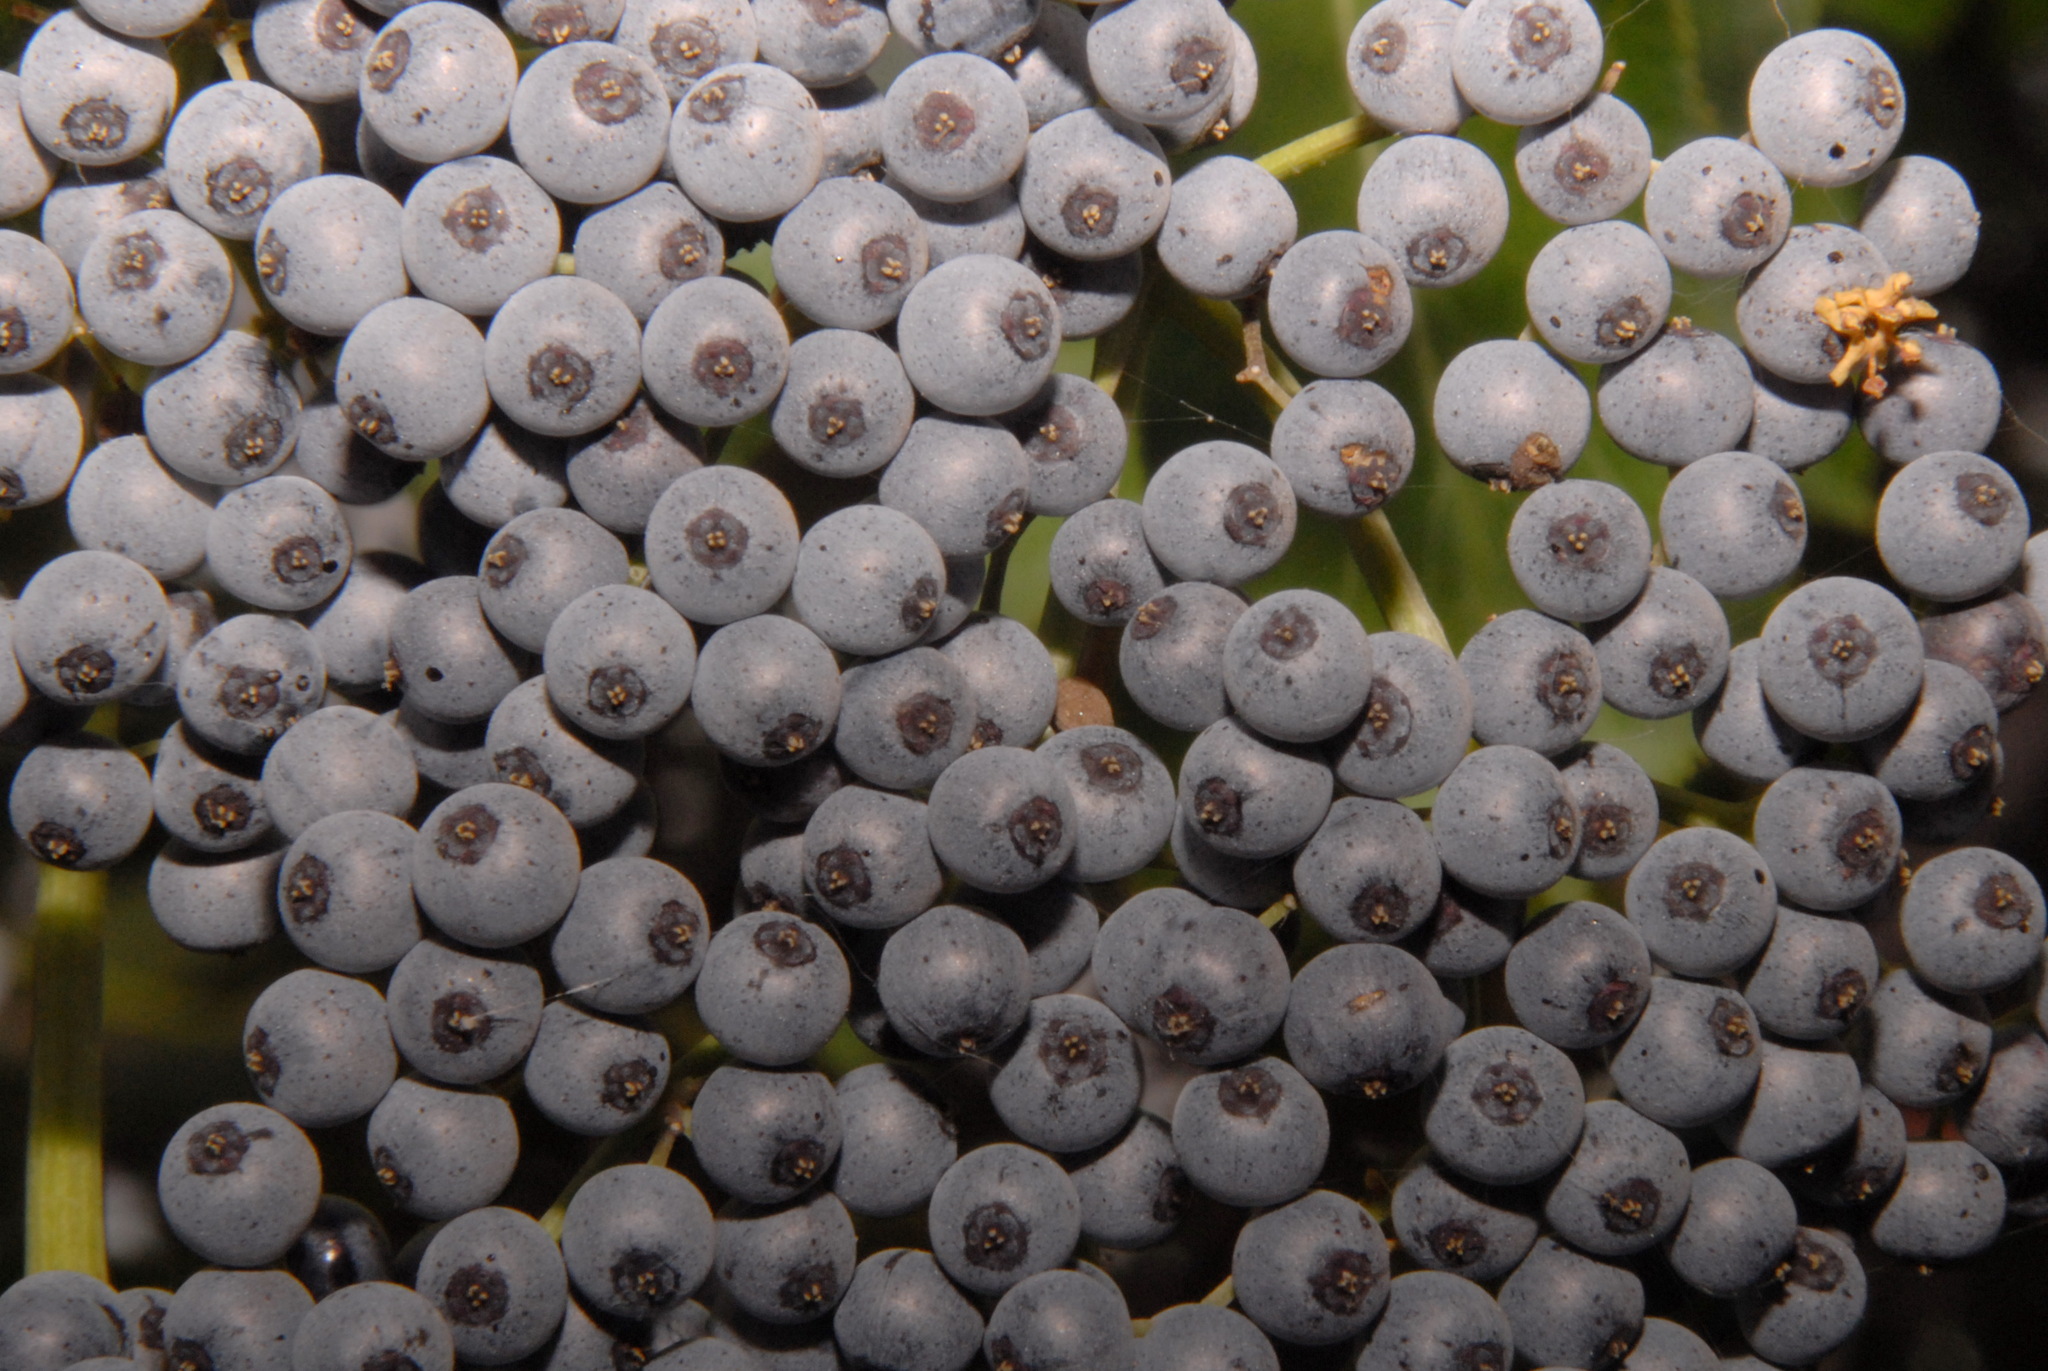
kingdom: Plantae
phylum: Tracheophyta
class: Magnoliopsida
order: Dipsacales
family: Viburnaceae
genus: Sambucus
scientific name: Sambucus cerulea
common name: Blue elder
